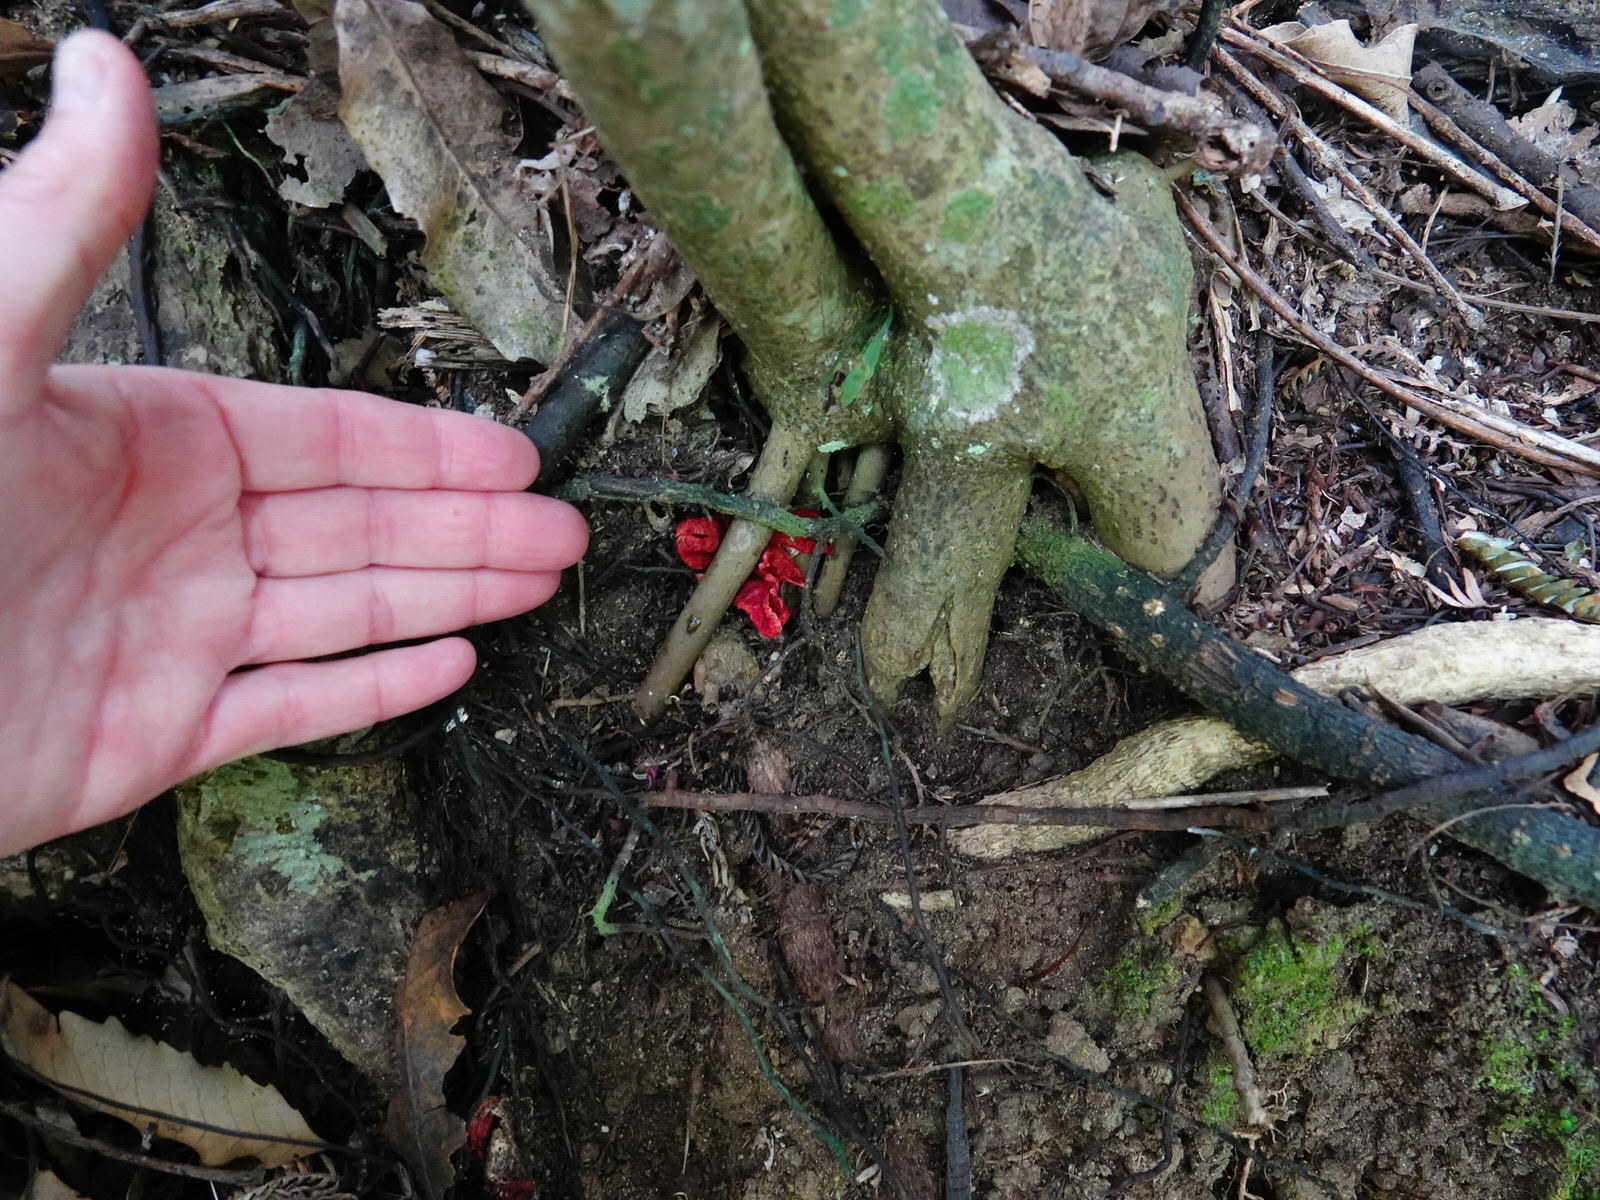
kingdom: Fungi
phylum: Basidiomycota
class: Agaricomycetes
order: Phallales
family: Phallaceae
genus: Clathrus
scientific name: Clathrus archeri
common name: Devil's fingers
